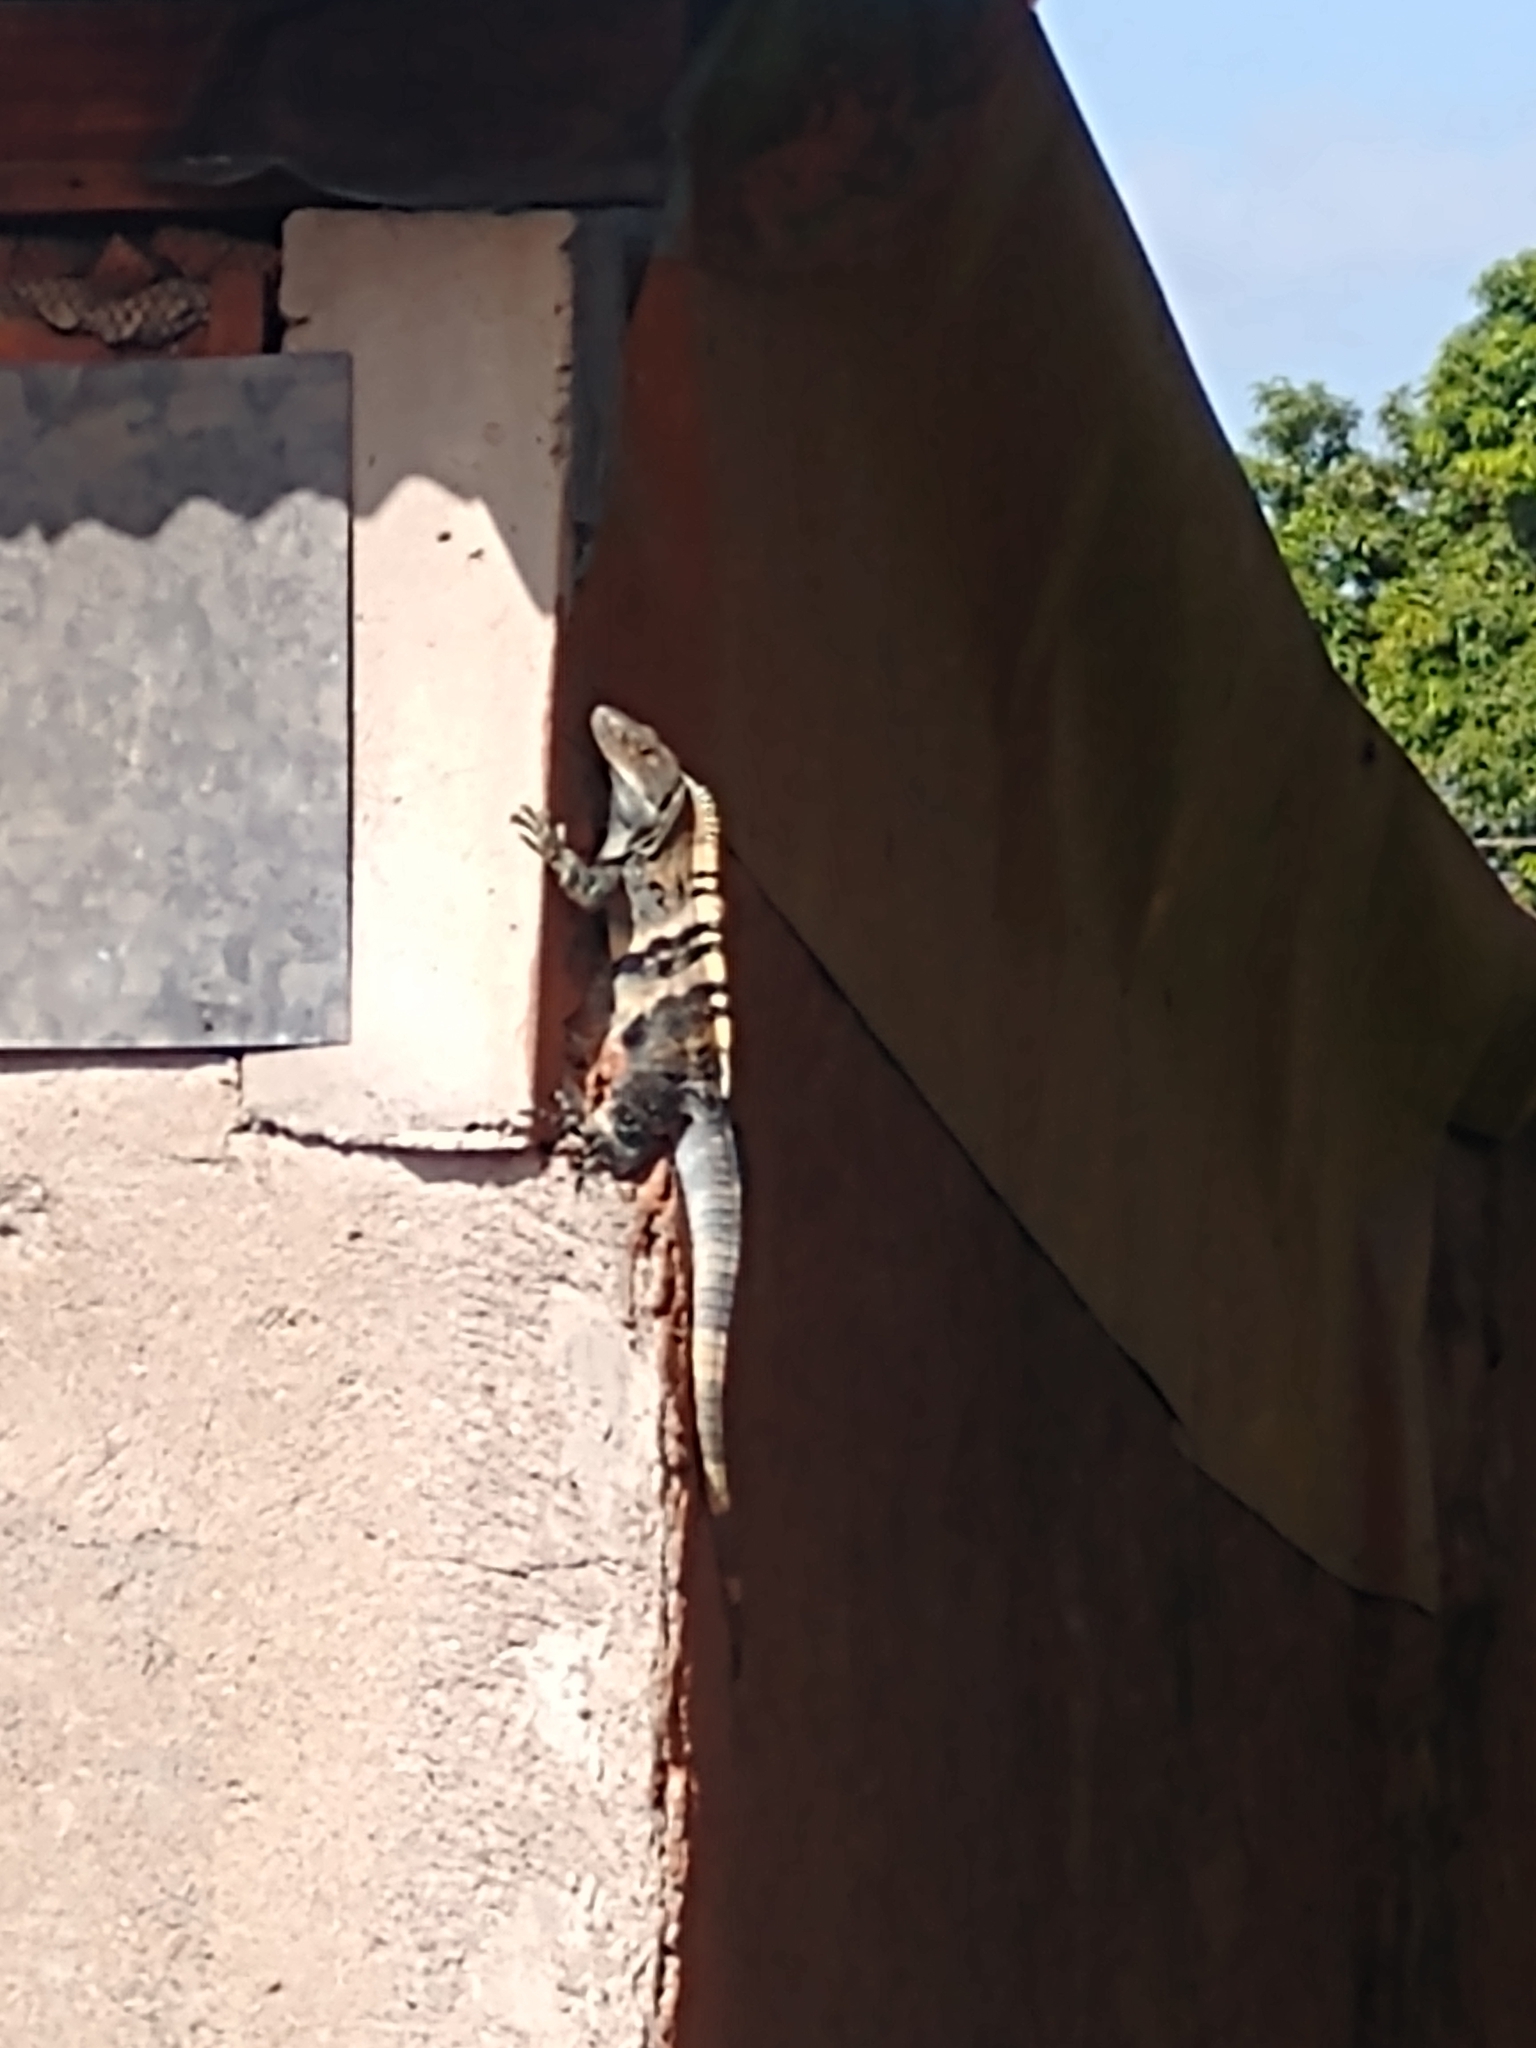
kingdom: Animalia
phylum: Chordata
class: Squamata
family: Iguanidae
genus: Ctenosaura
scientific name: Ctenosaura similis
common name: Black spiny-tailed iguana
